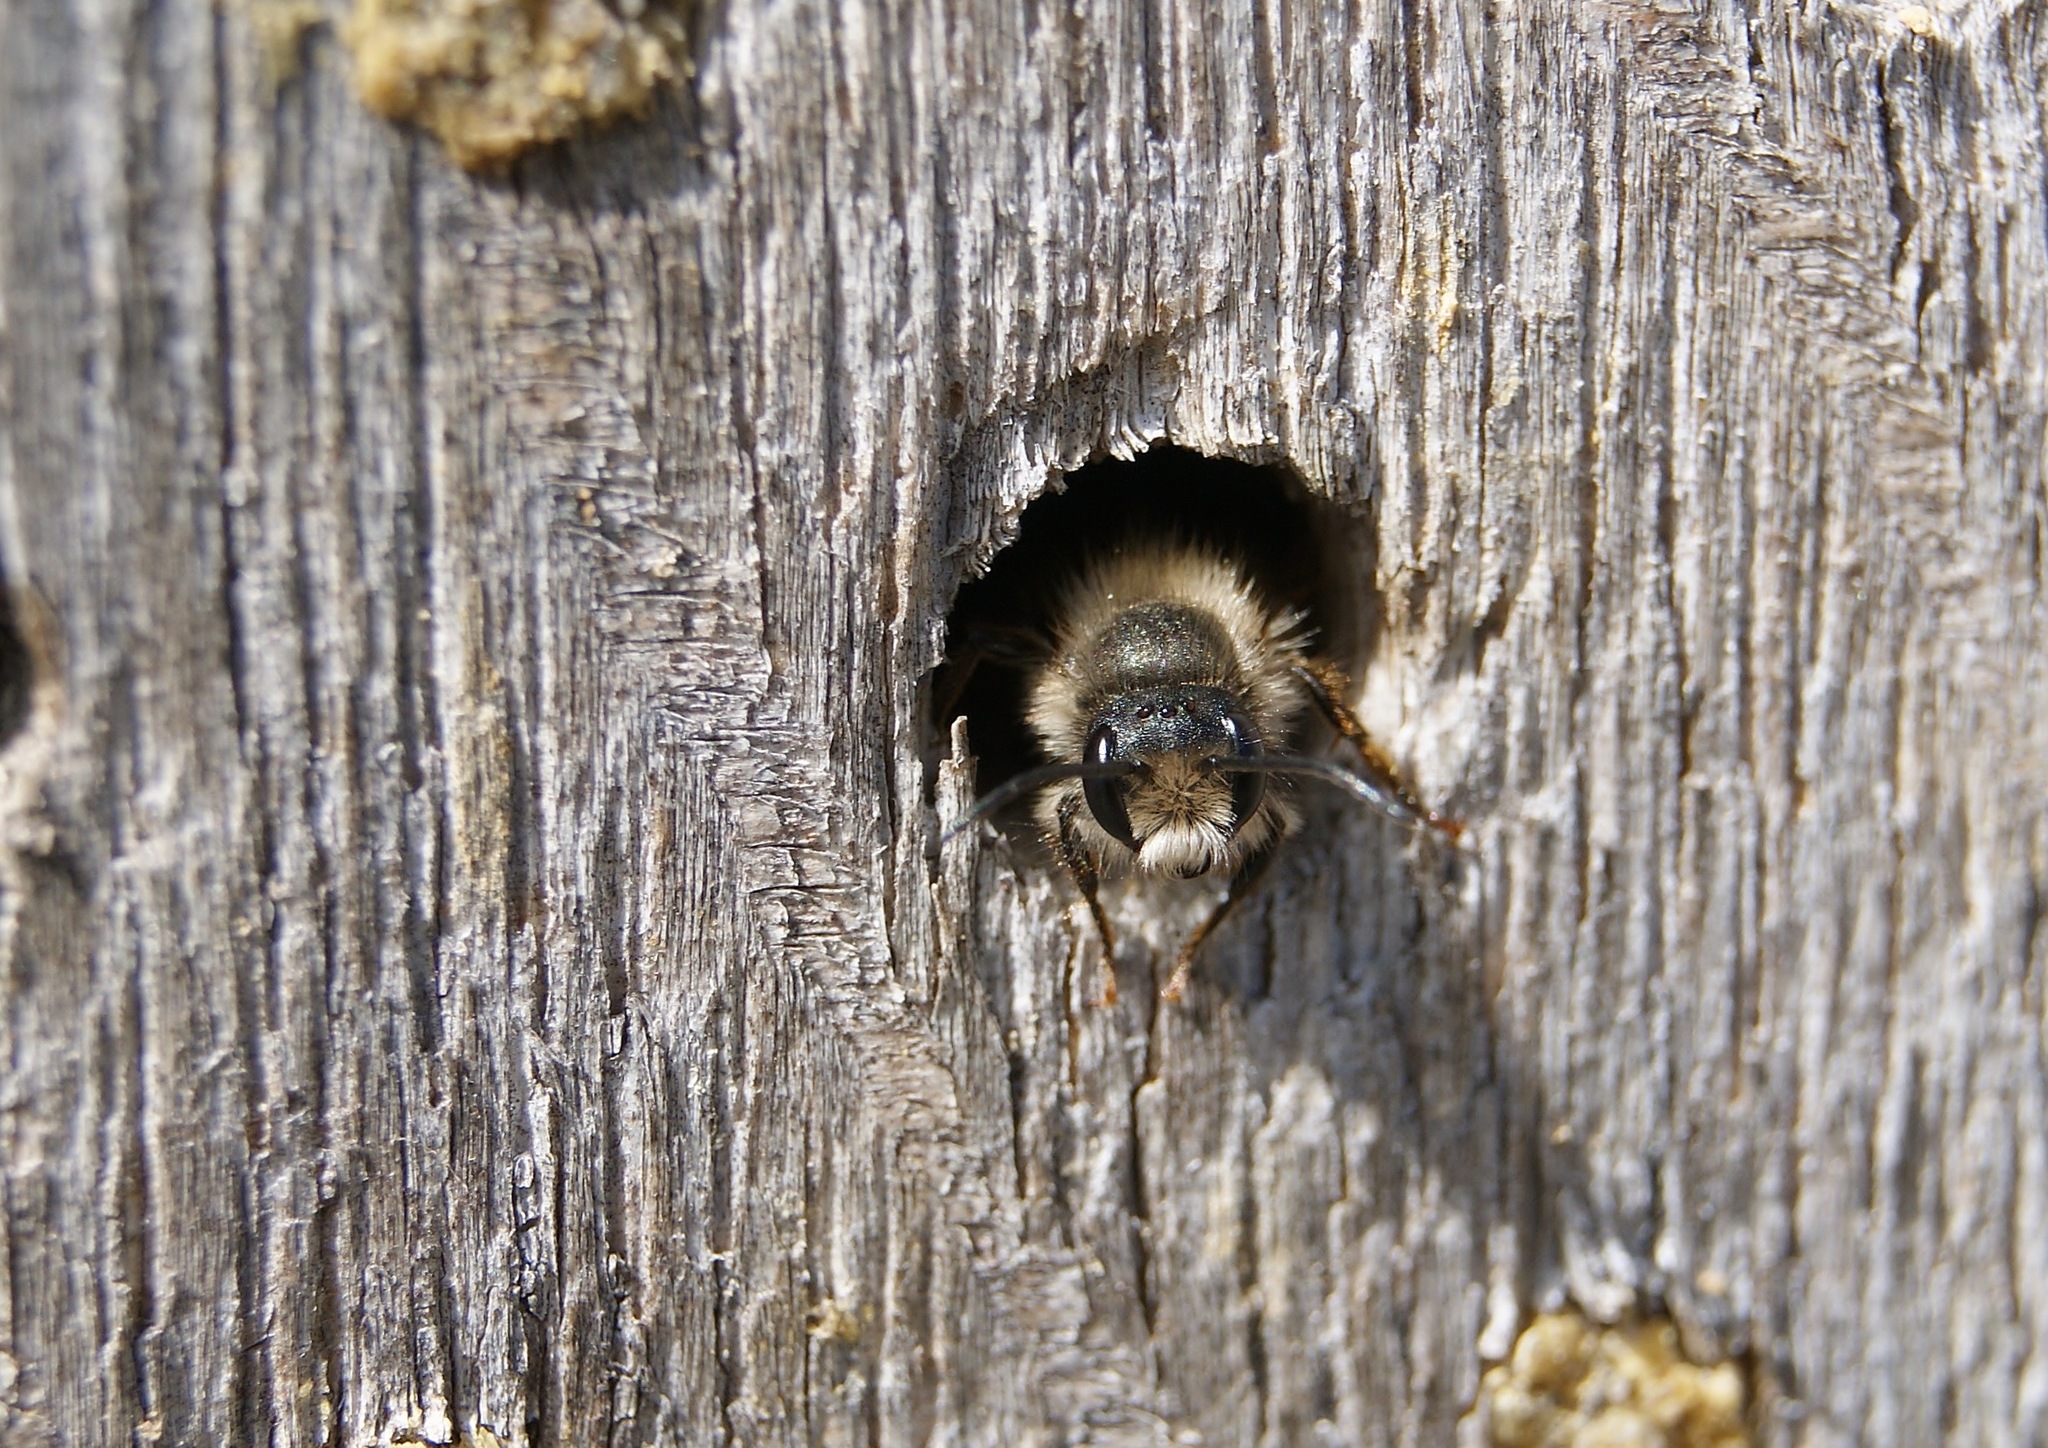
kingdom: Animalia
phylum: Arthropoda
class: Insecta
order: Hymenoptera
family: Megachilidae
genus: Osmia
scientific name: Osmia bicornis
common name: Red mason bee
